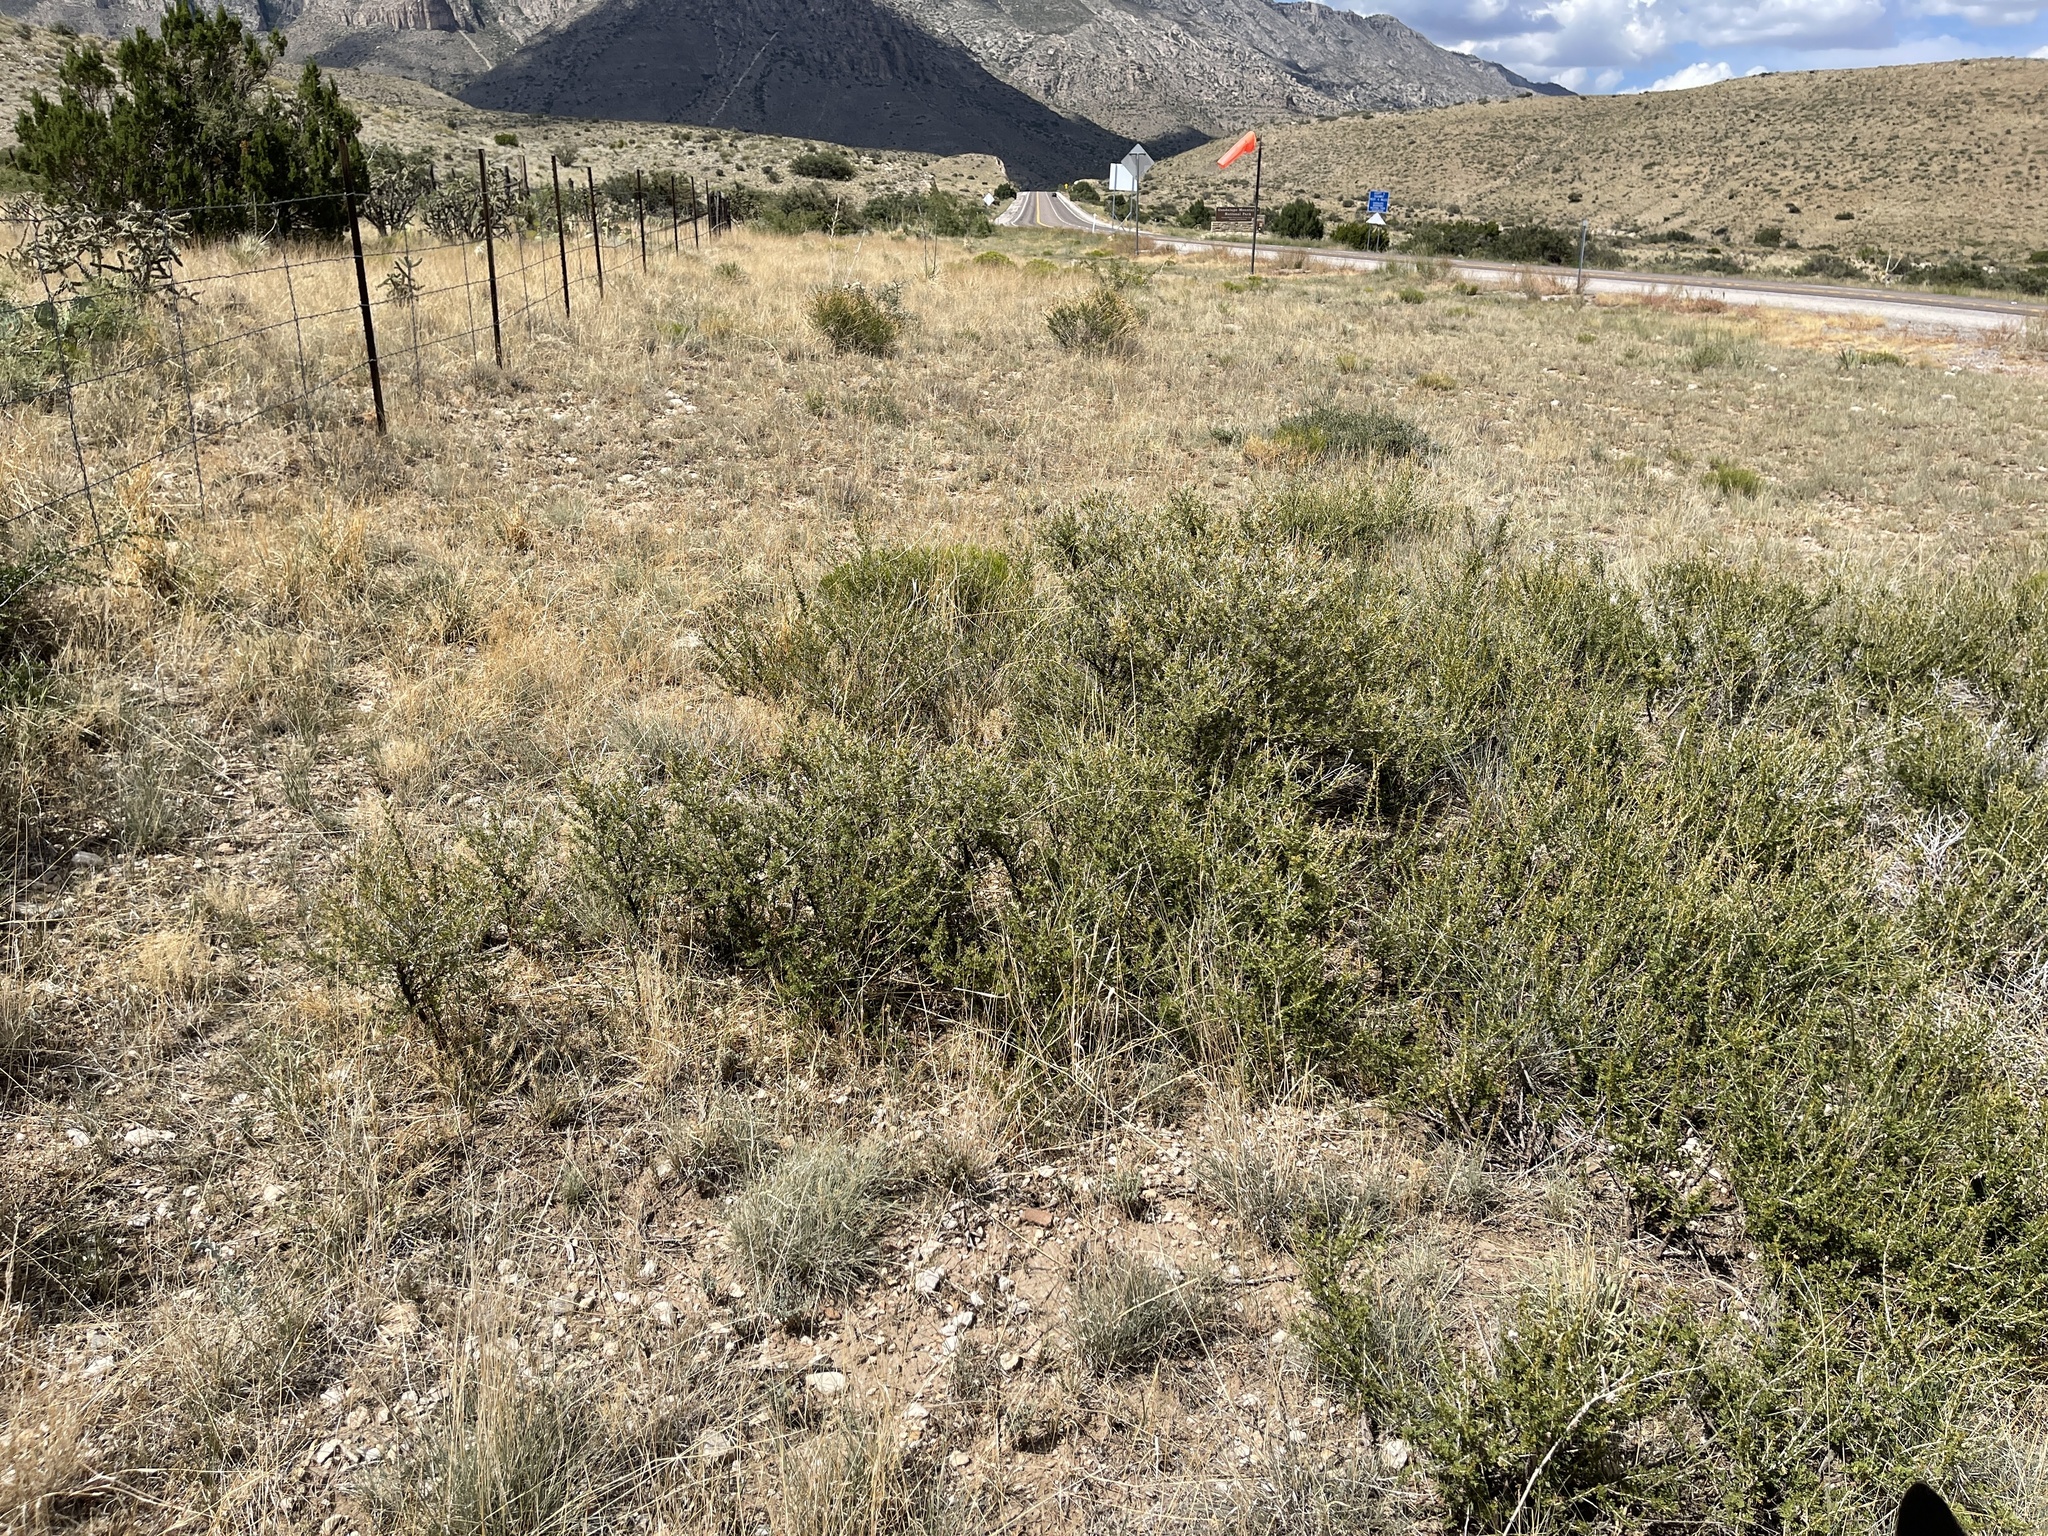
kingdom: Plantae
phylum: Tracheophyta
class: Magnoliopsida
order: Rosales
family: Rosaceae
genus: Fallugia
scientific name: Fallugia paradoxa
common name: Apache-plume
